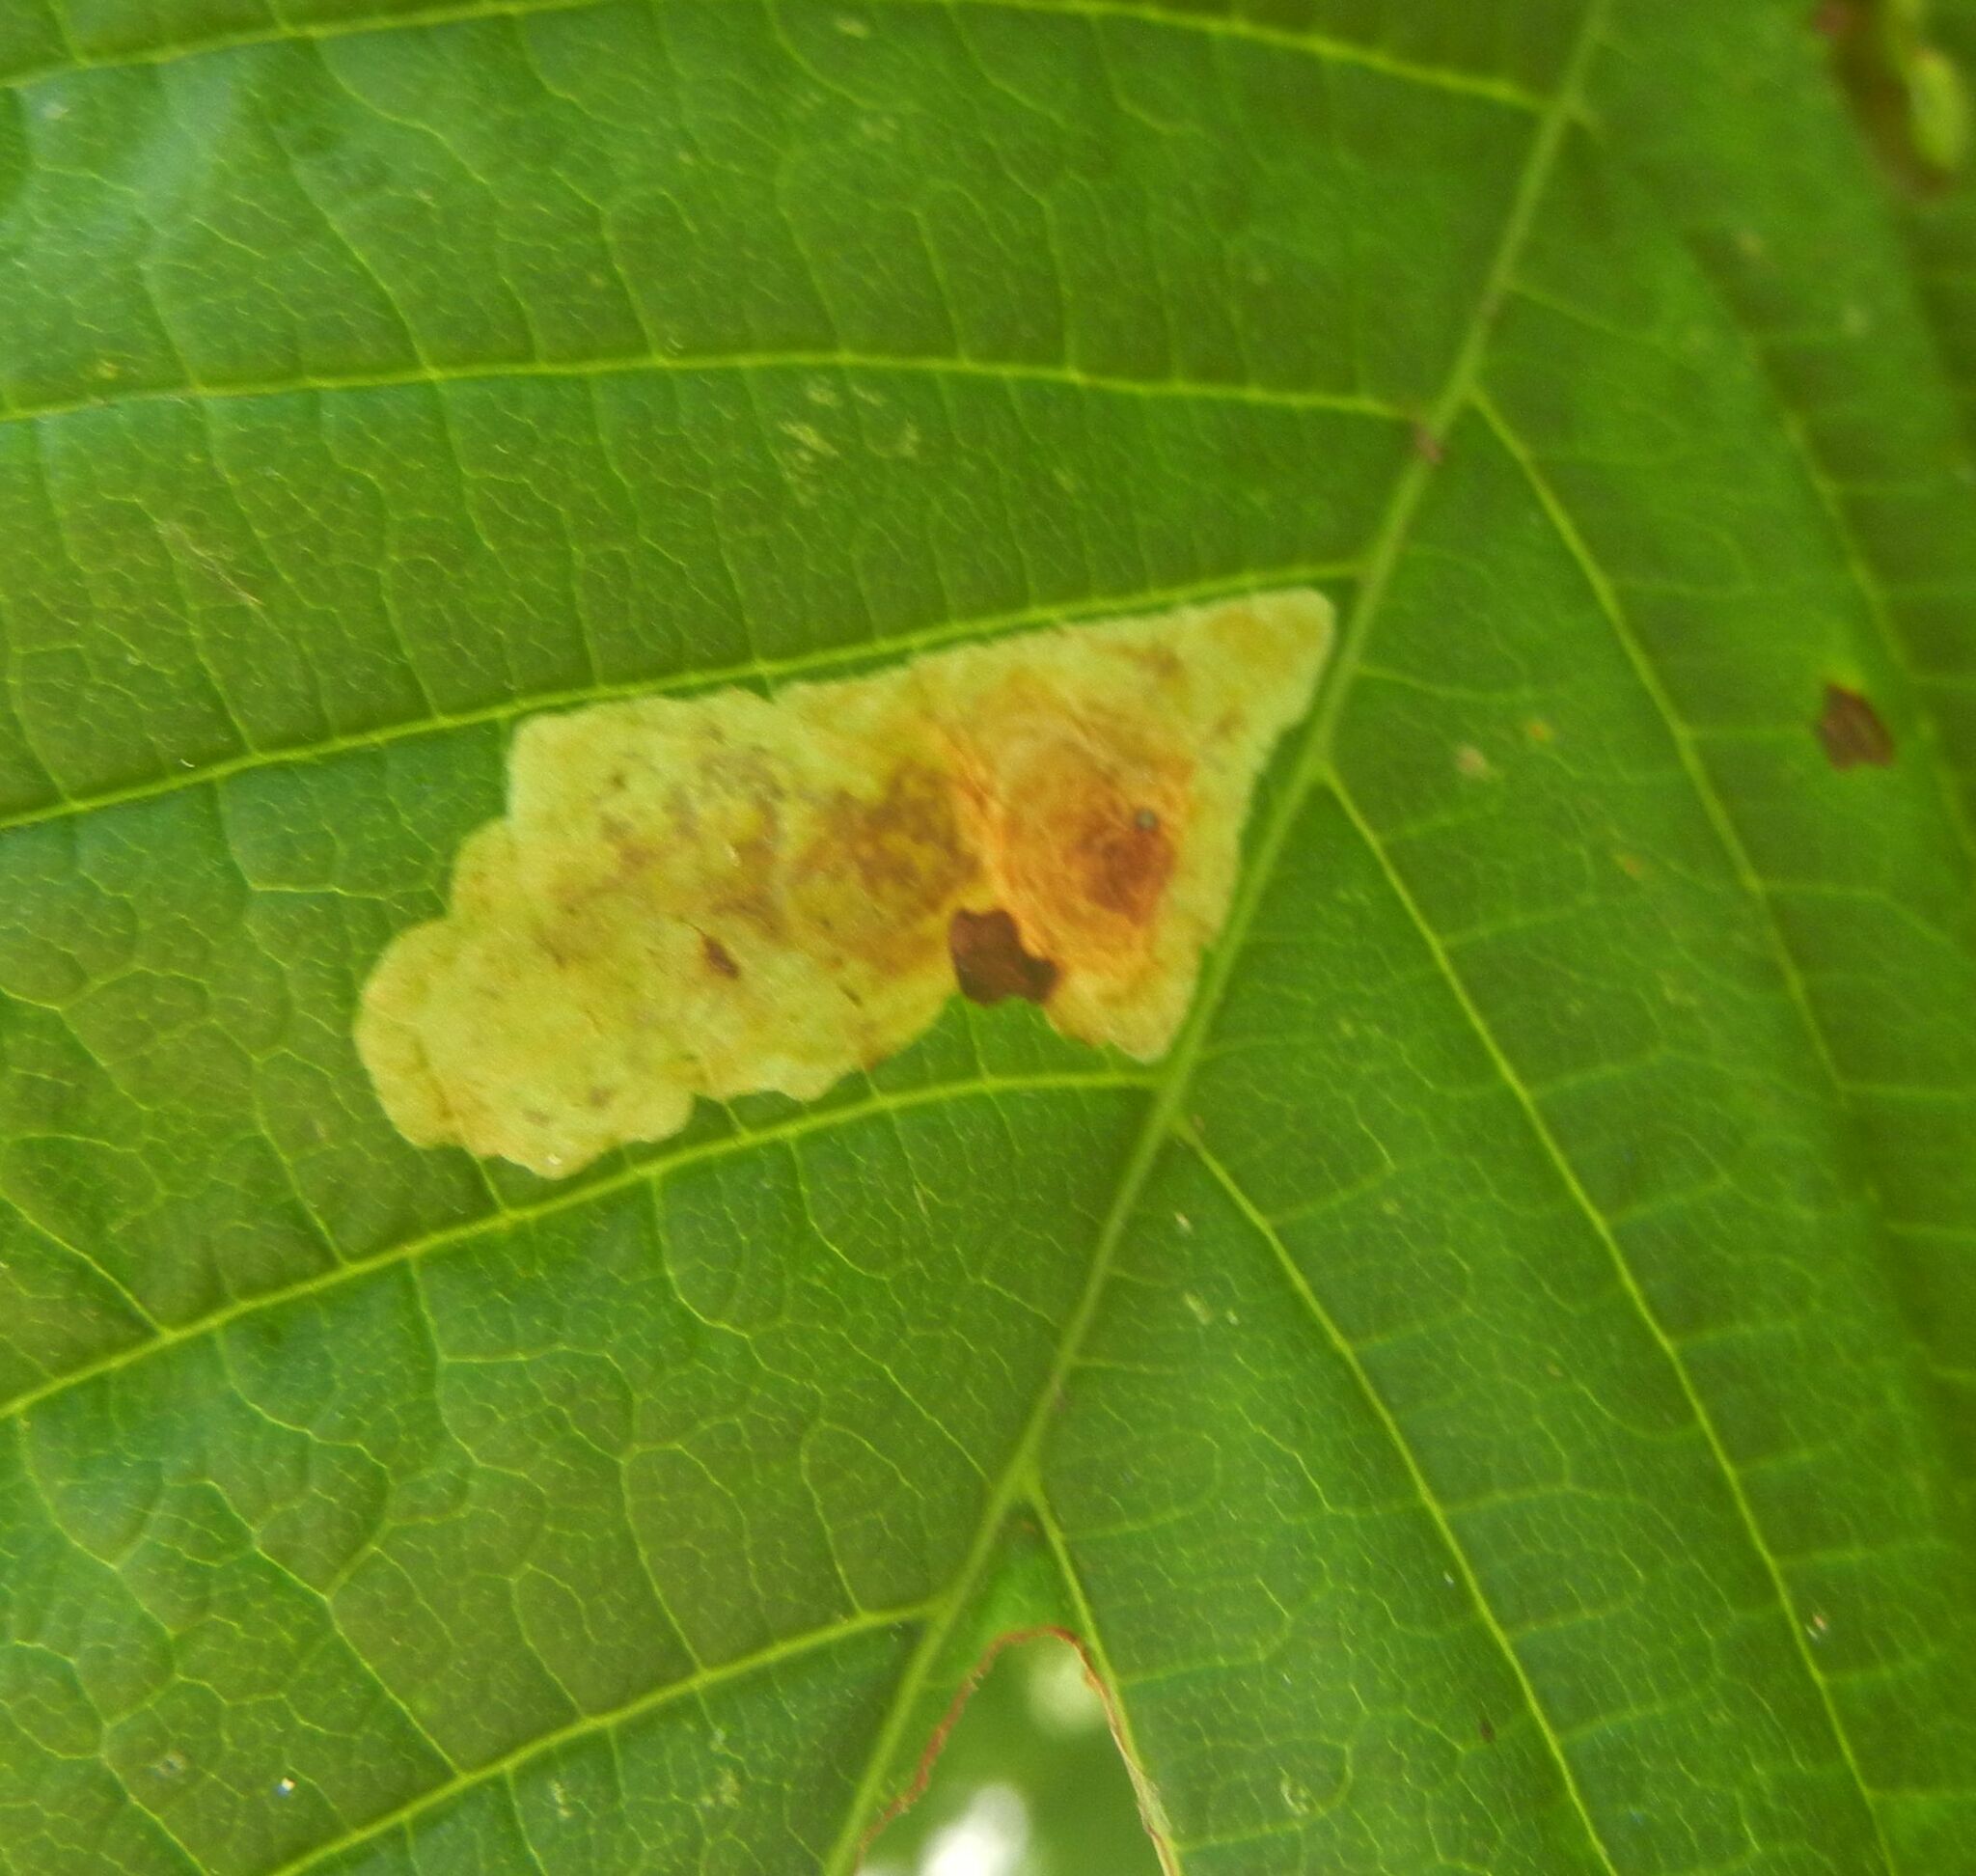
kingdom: Animalia
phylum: Arthropoda
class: Insecta
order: Lepidoptera
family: Gracillariidae
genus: Cameraria
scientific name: Cameraria ohridella
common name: Horse-chestnut leaf-miner
